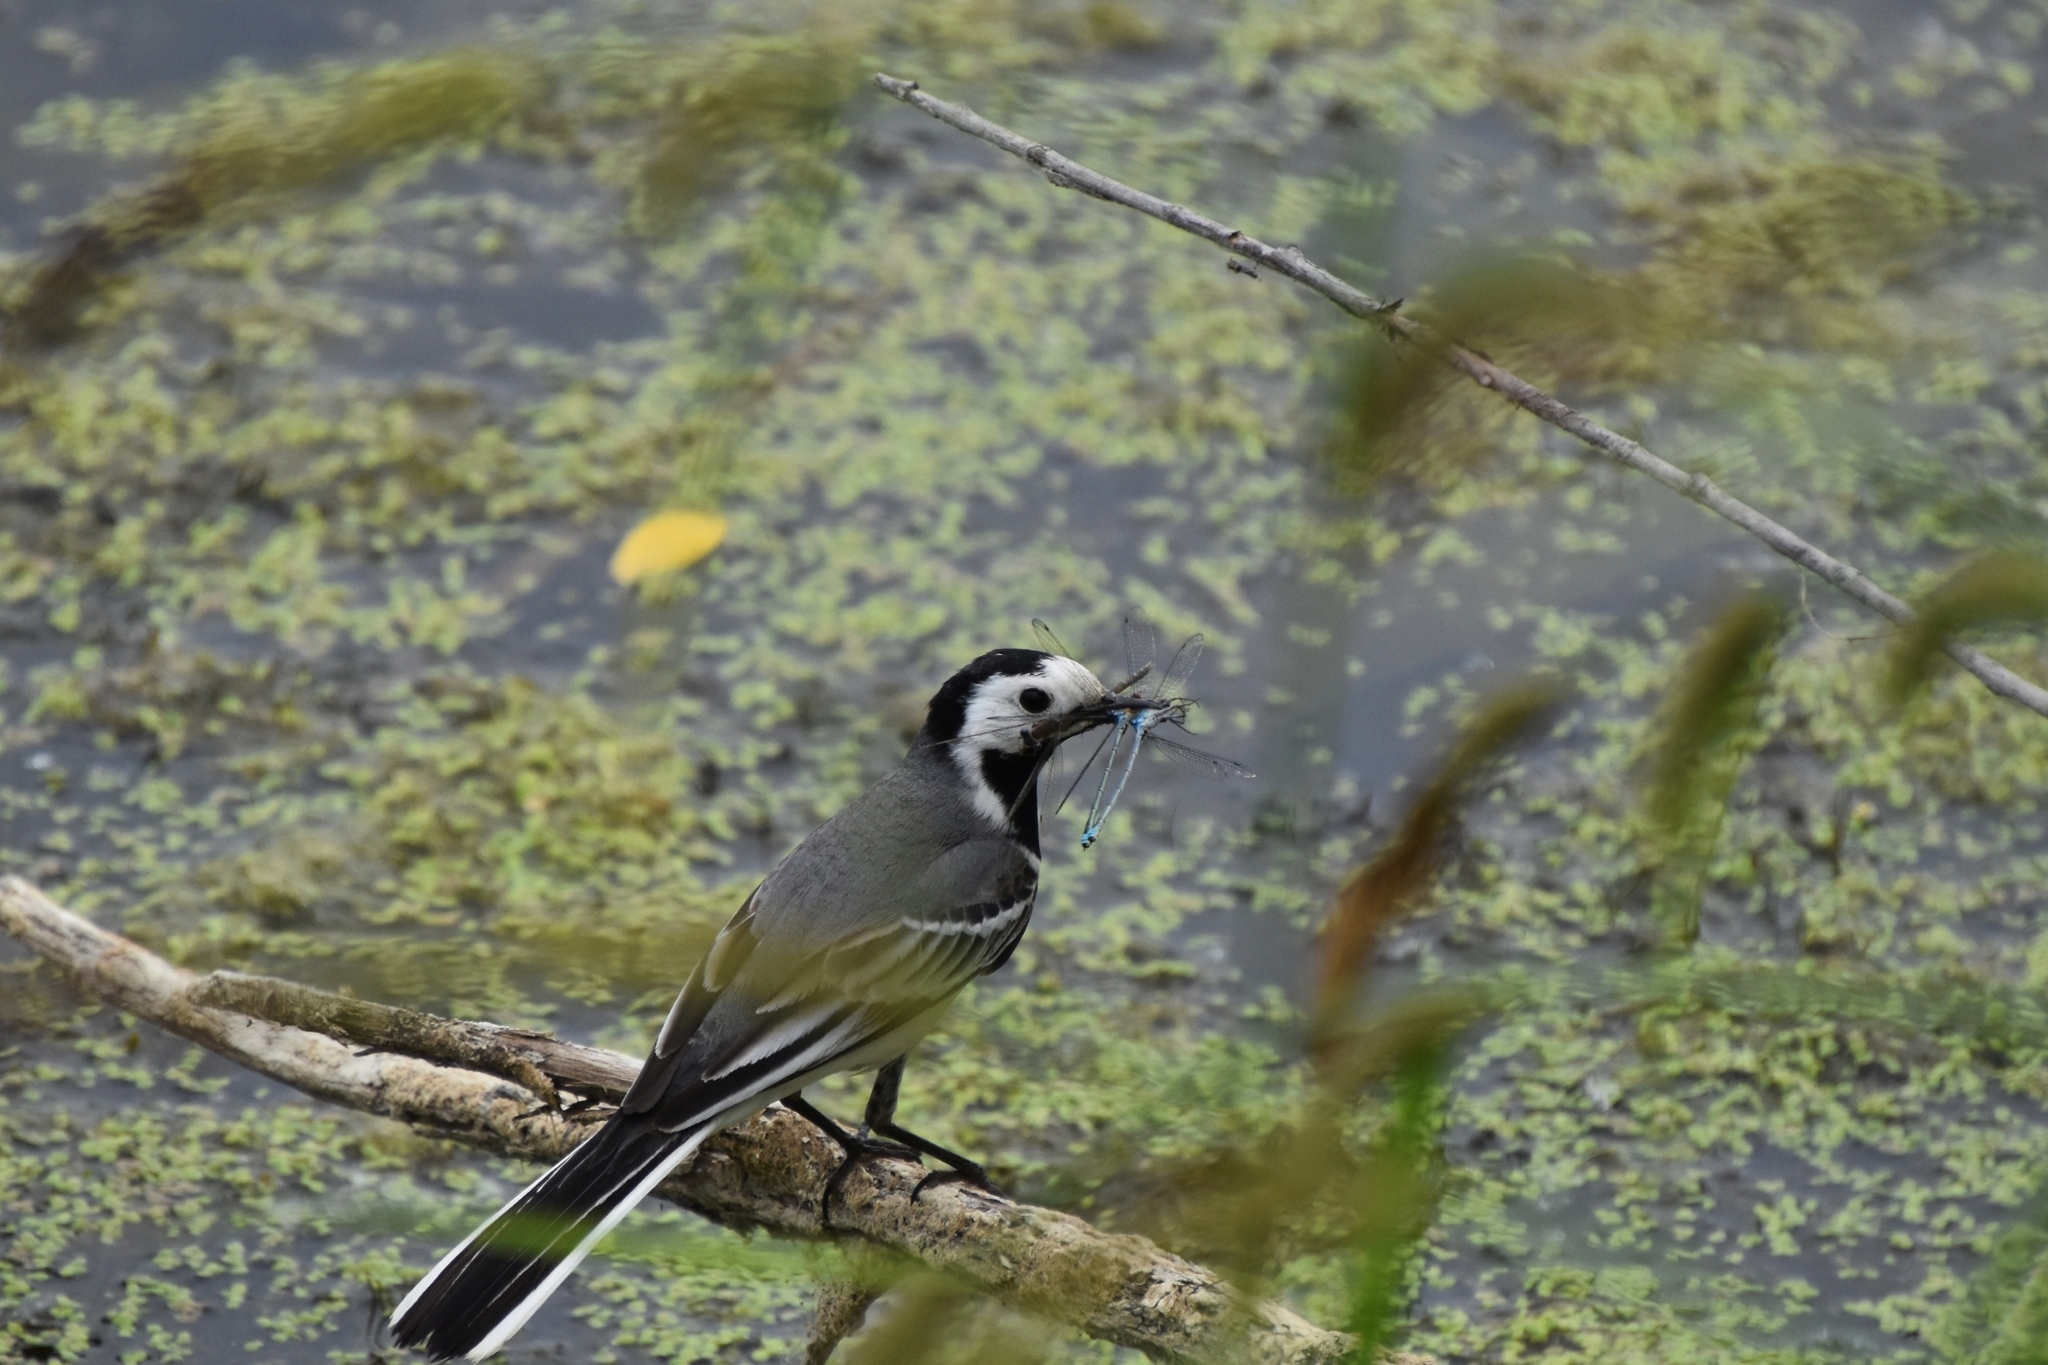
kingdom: Animalia
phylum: Chordata
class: Aves
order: Passeriformes
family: Motacillidae
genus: Motacilla
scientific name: Motacilla alba
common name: White wagtail
